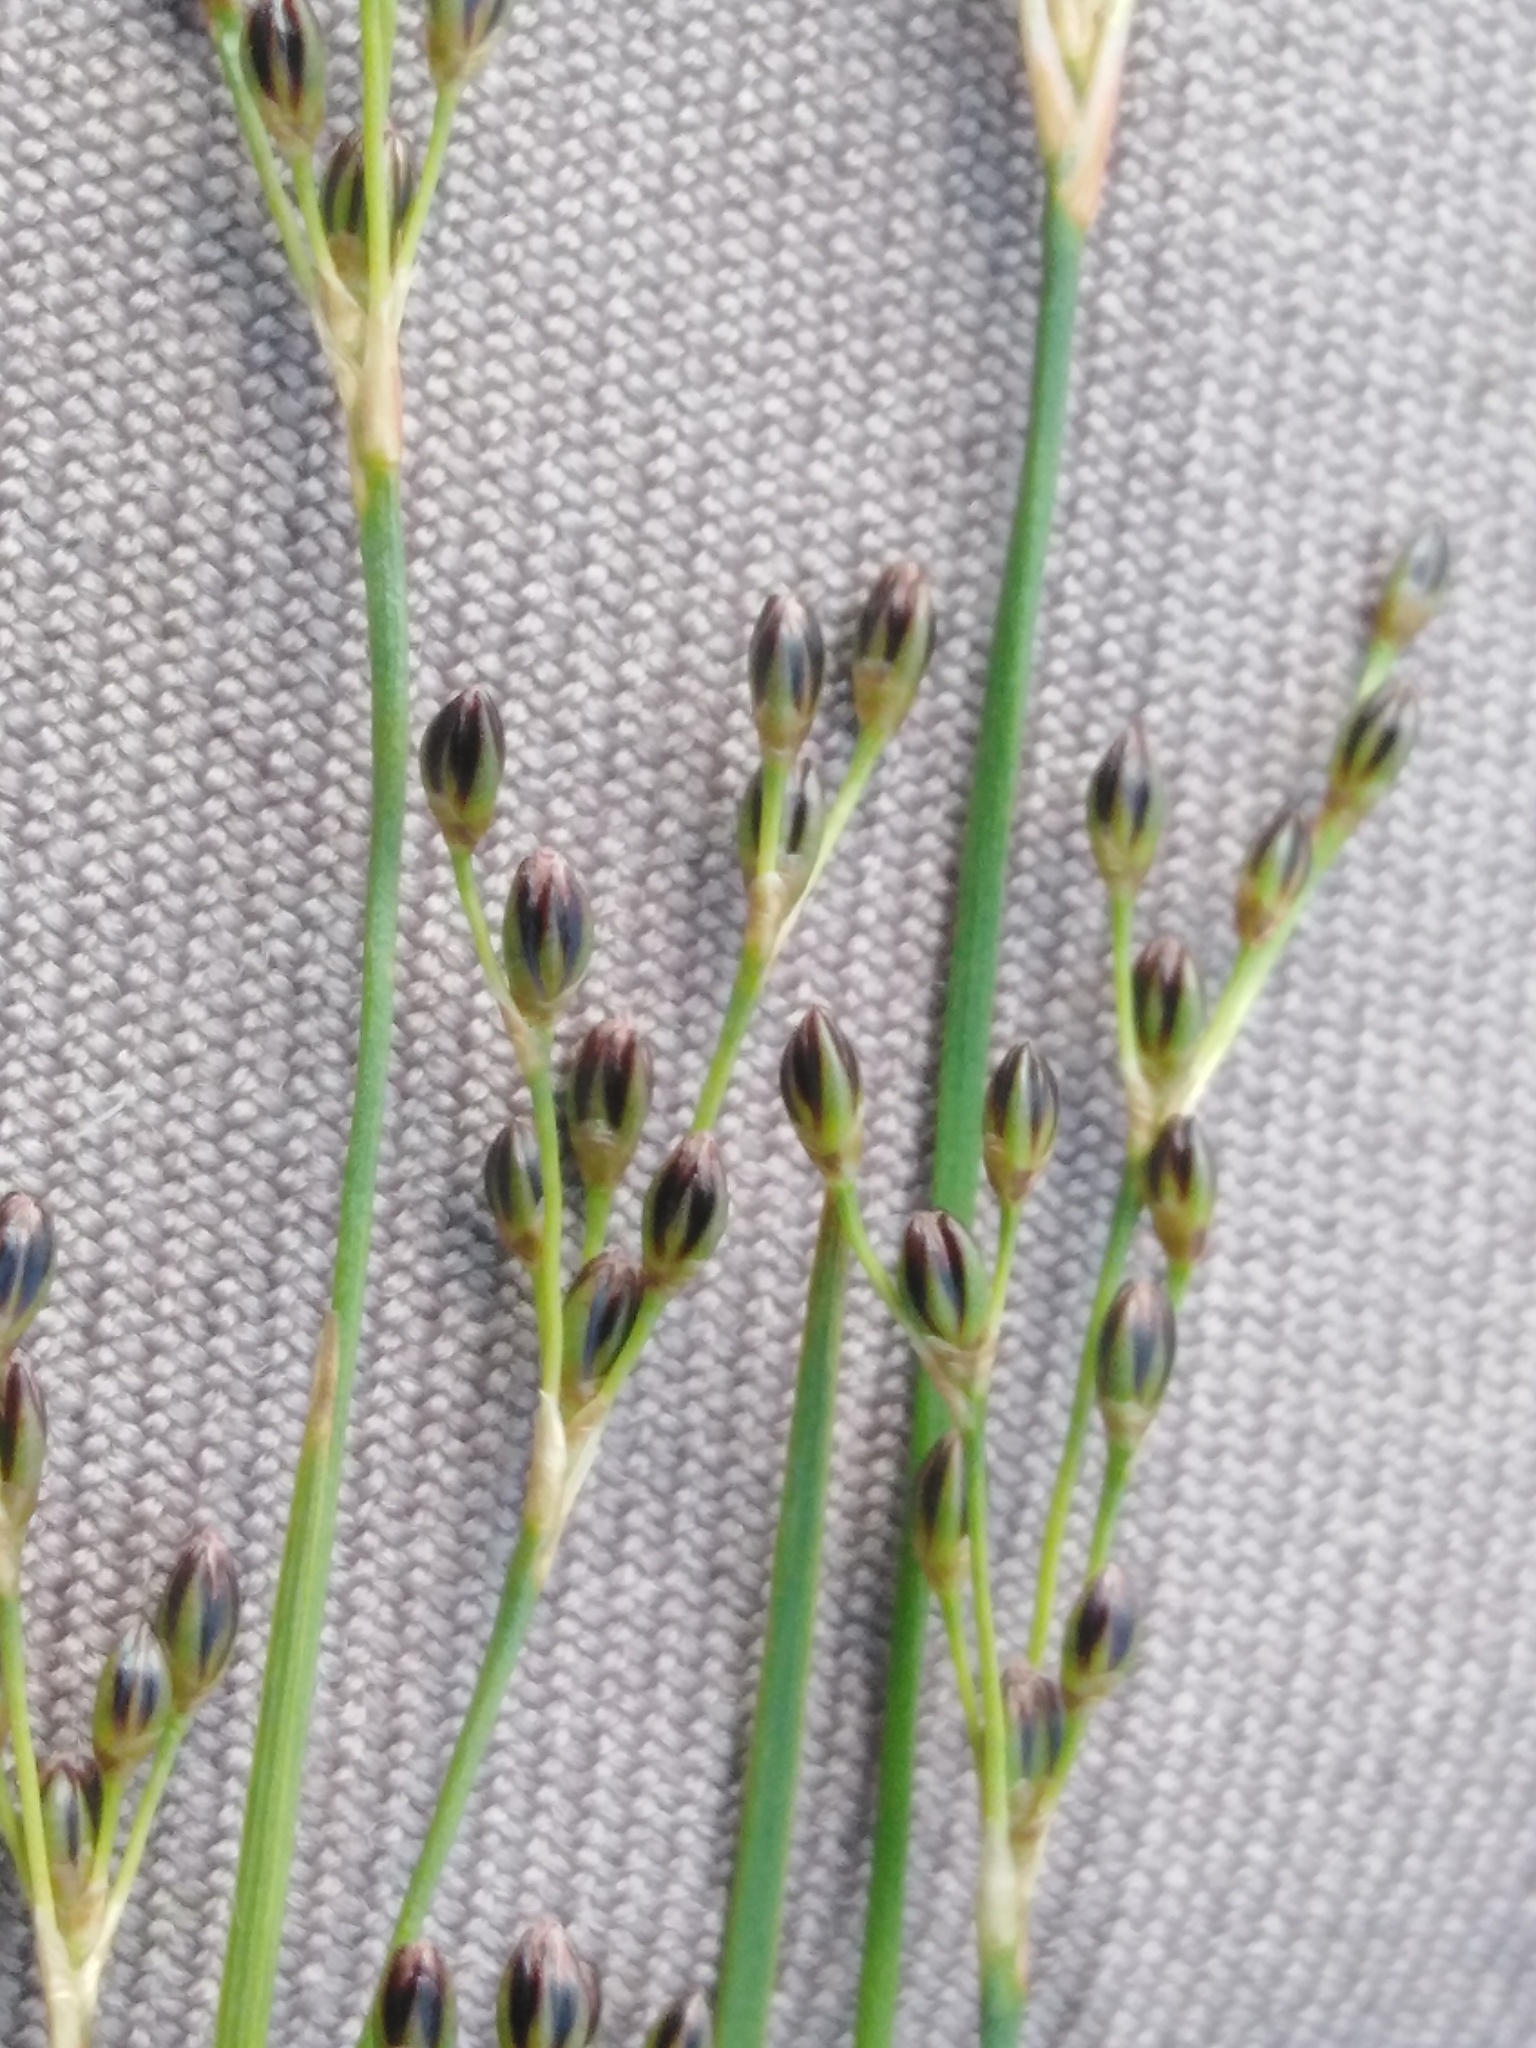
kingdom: Plantae
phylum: Tracheophyta
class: Liliopsida
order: Poales
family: Juncaceae
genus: Juncus
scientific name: Juncus gerardi
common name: Saltmarsh rush
